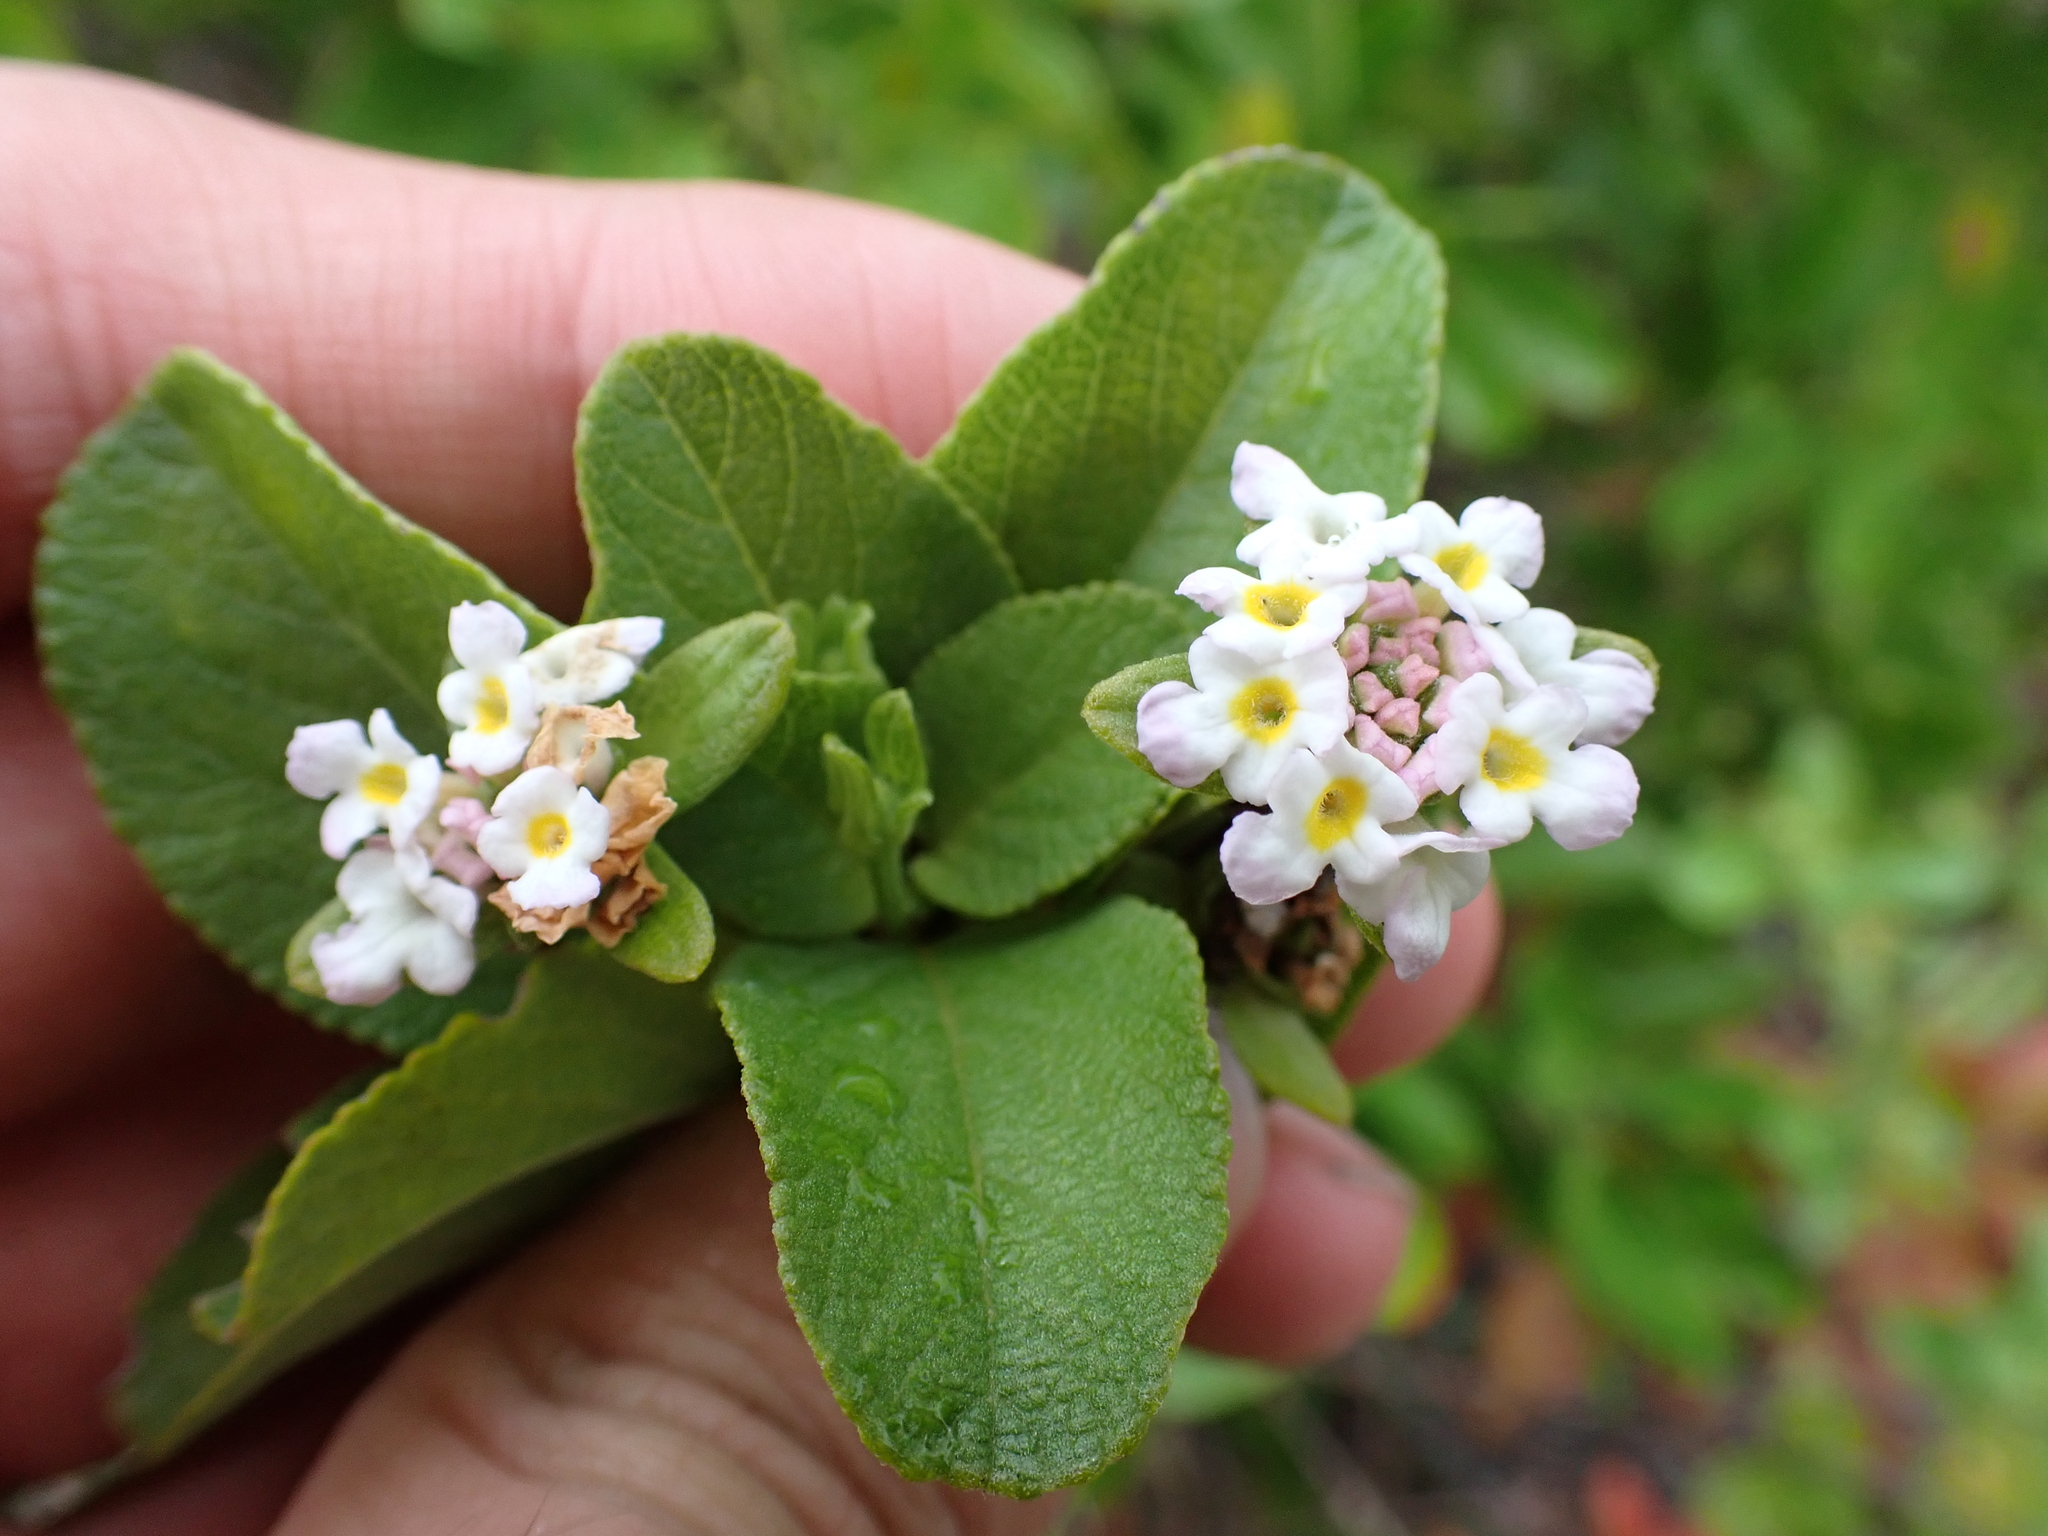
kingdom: Plantae
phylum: Tracheophyta
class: Magnoliopsida
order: Lamiales
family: Verbenaceae
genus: Lantana
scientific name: Lantana involucrata
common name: Black sage
